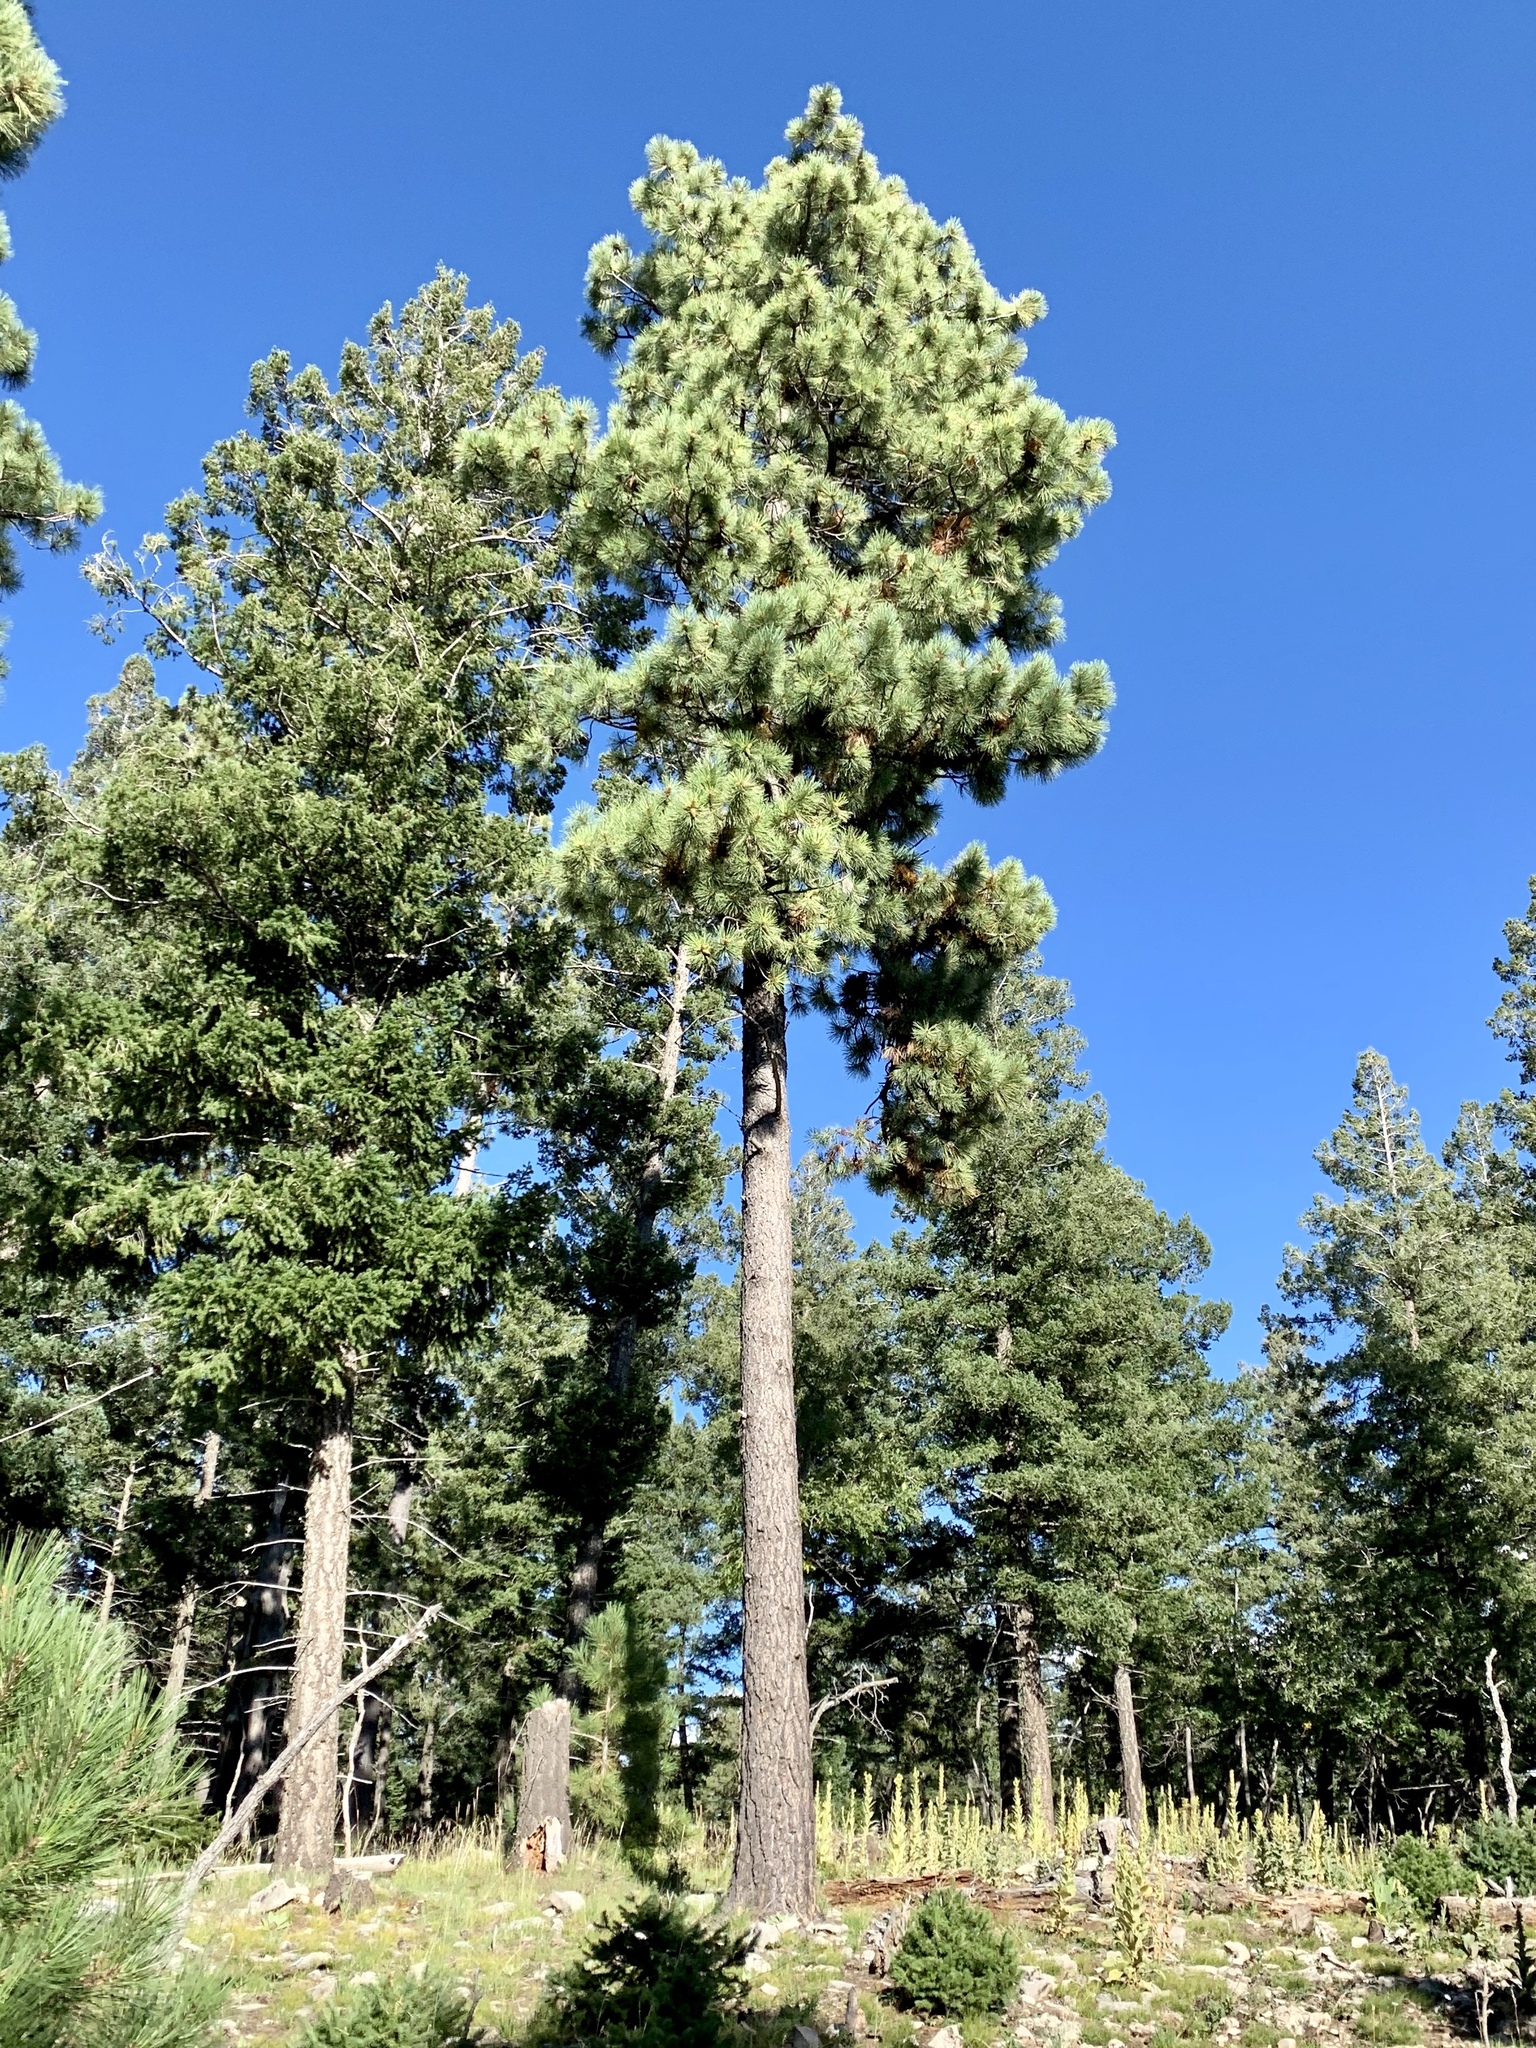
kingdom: Plantae
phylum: Tracheophyta
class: Pinopsida
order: Pinales
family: Pinaceae
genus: Pinus
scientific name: Pinus ponderosa
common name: Western yellow-pine
